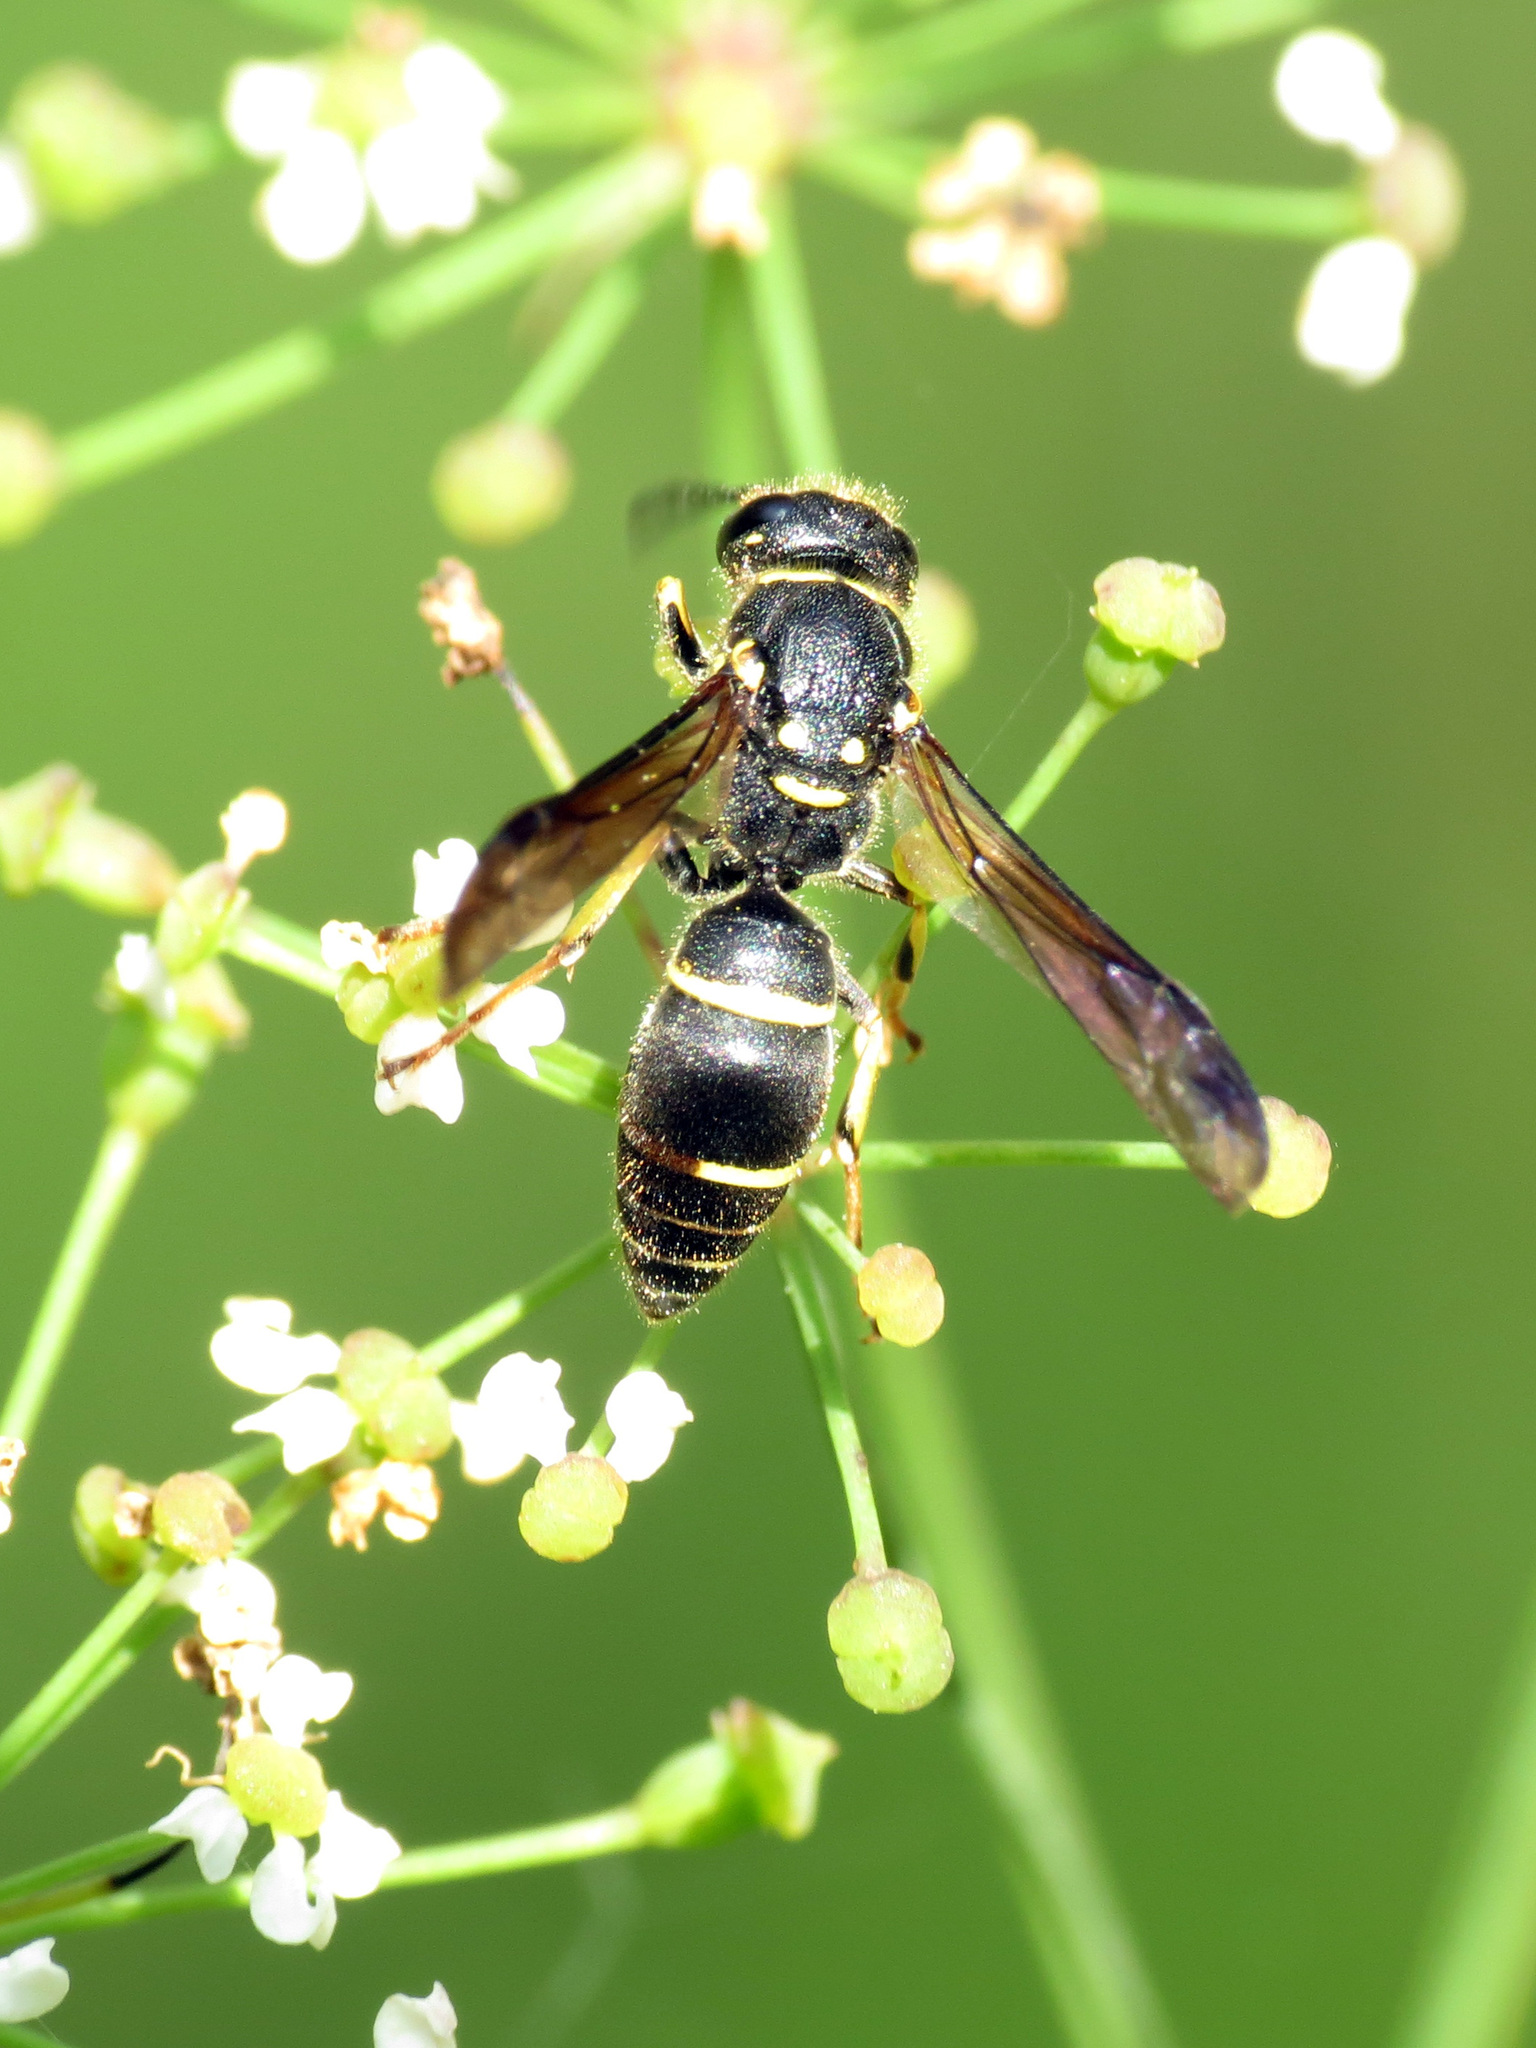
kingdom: Animalia
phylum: Arthropoda
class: Insecta
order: Hymenoptera
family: Vespidae
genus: Ancistrocerus
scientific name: Ancistrocerus adiabatus
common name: Bramble mason wasp
